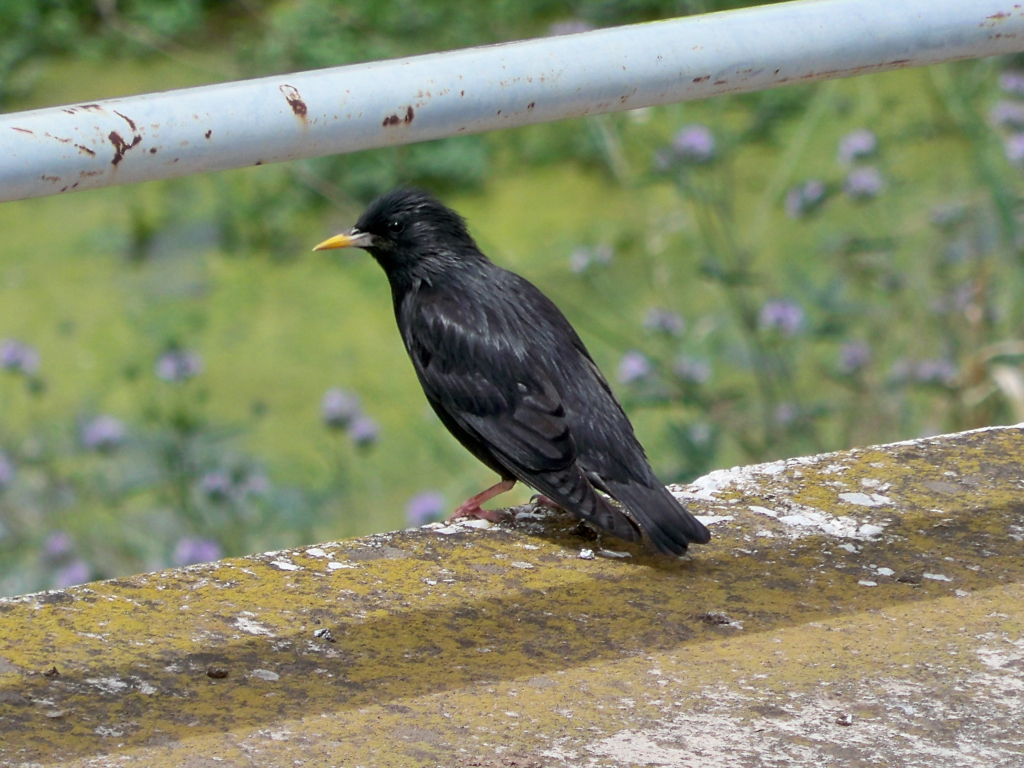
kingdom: Animalia
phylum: Chordata
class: Aves
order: Passeriformes
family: Sturnidae
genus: Sturnus
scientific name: Sturnus unicolor
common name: Spotless starling
